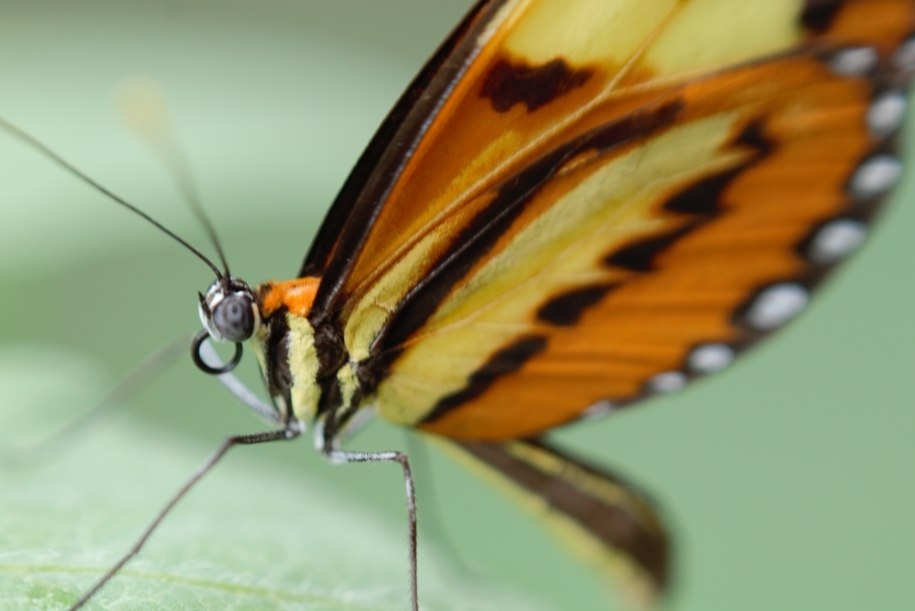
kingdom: Animalia
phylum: Arthropoda
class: Insecta
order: Lepidoptera
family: Nymphalidae
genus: Mechanitis
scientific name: Mechanitis lysimnia
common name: Lysimnia tigerwing
